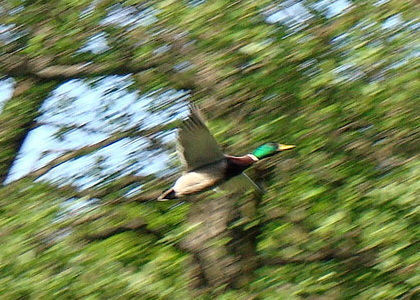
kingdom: Animalia
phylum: Chordata
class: Aves
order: Anseriformes
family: Anatidae
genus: Anas
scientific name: Anas platyrhynchos
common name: Mallard
